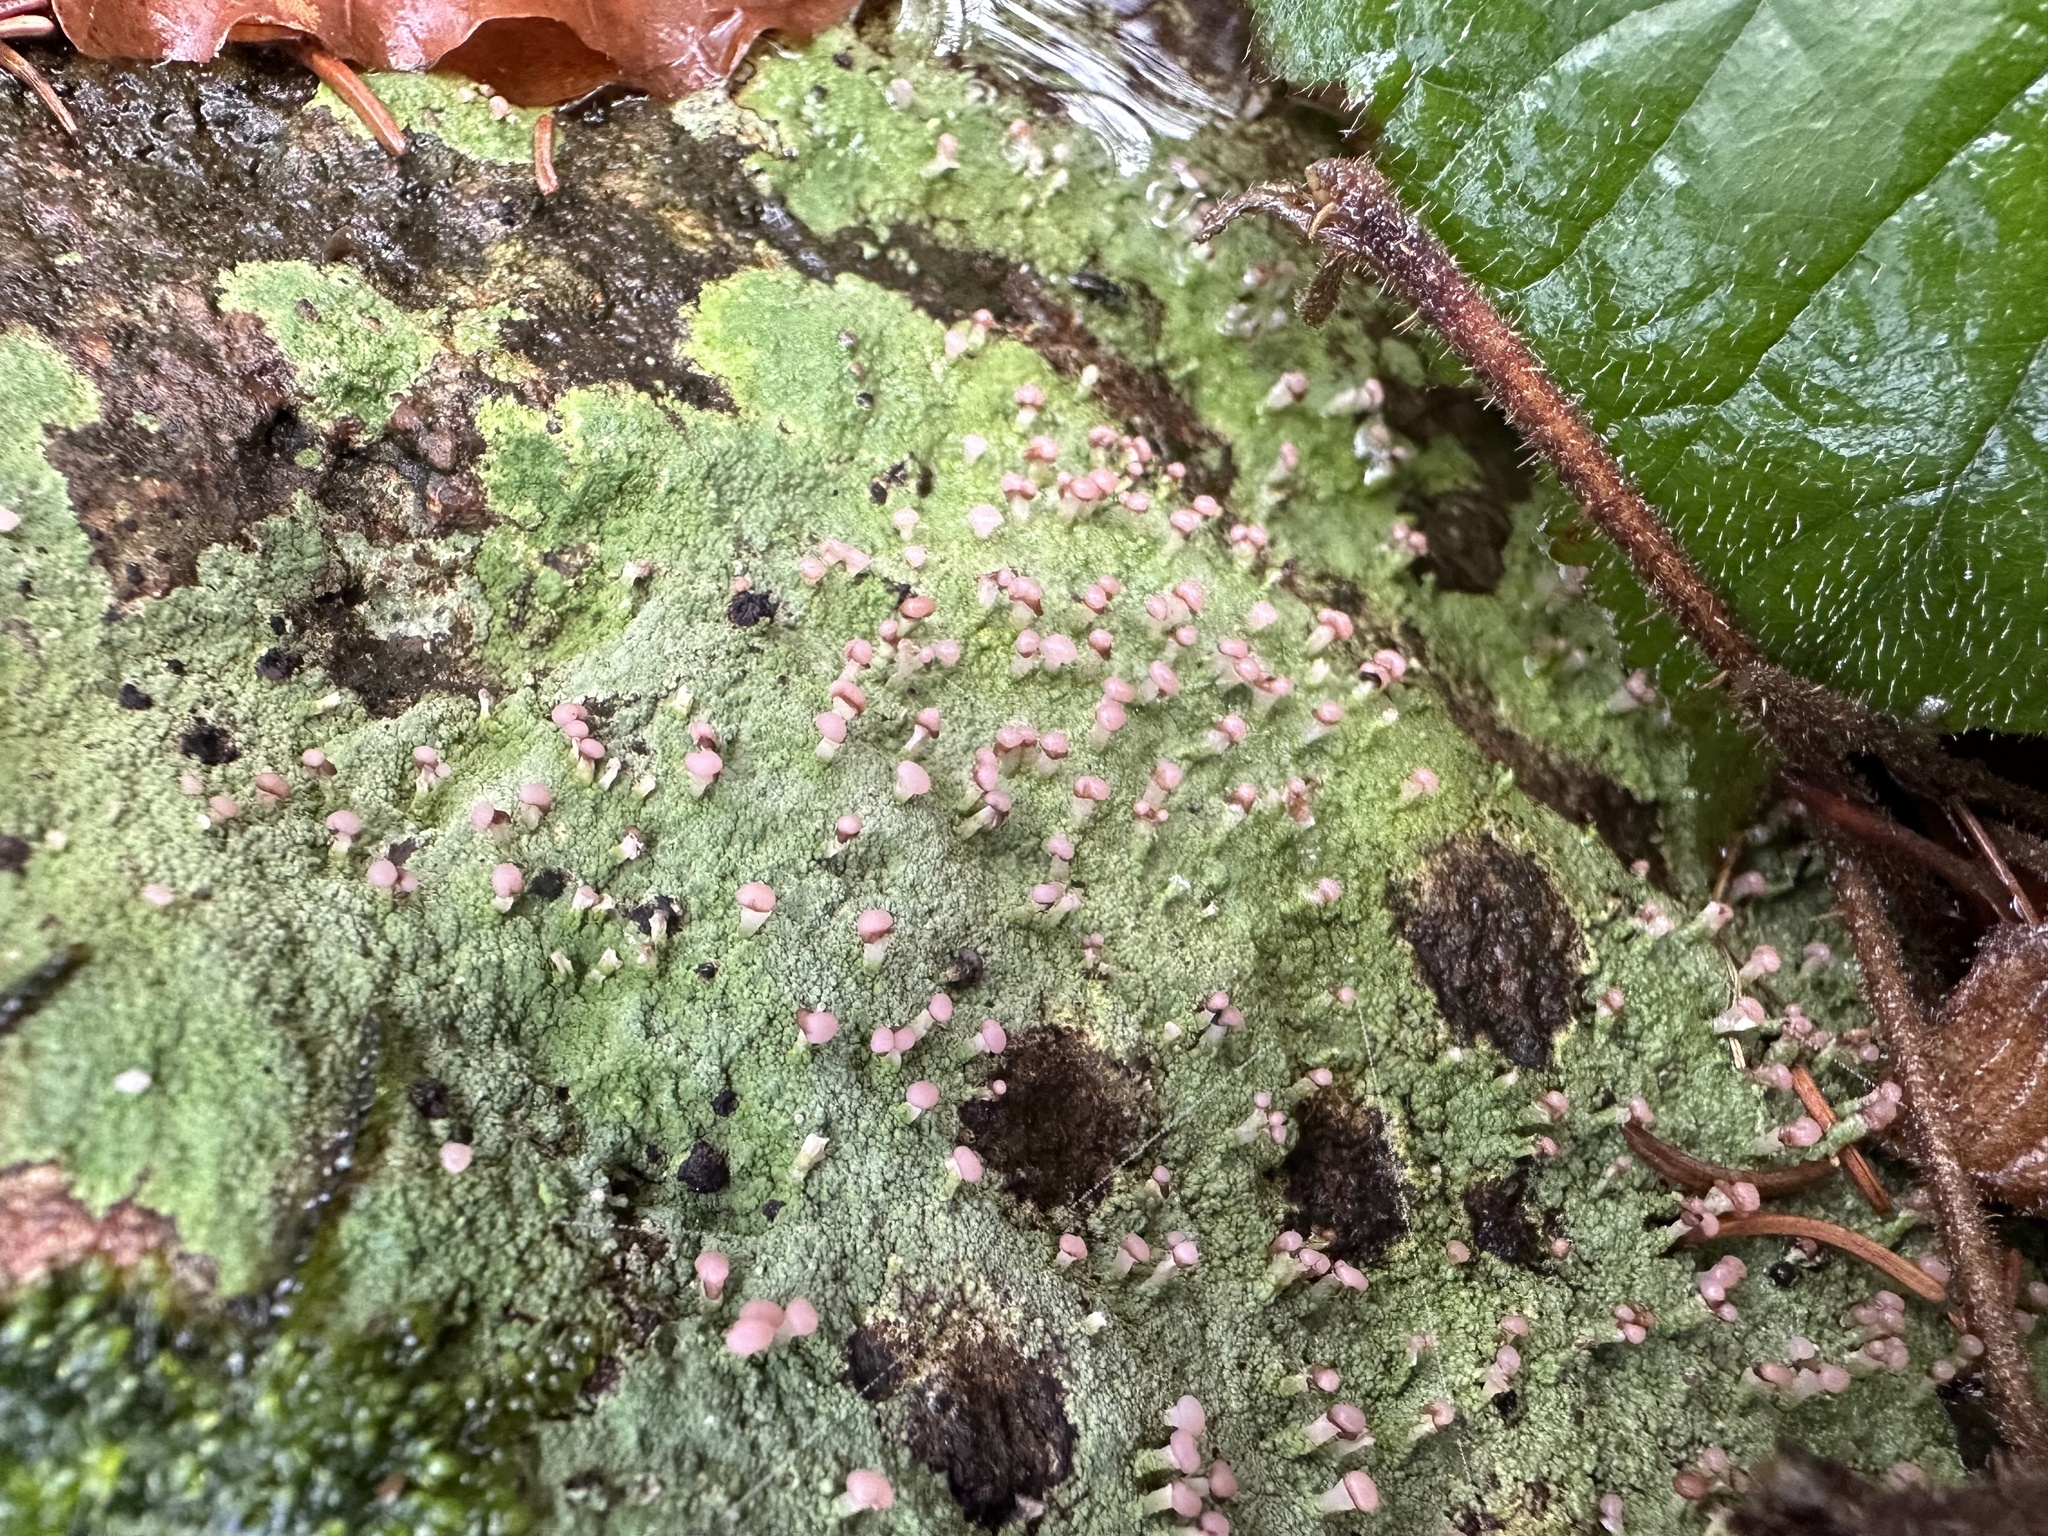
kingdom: Fungi
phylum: Ascomycota
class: Lecanoromycetes
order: Baeomycetales
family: Baeomycetaceae
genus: Baeomyces
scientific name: Baeomyces rufus
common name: Brown beret lichen
